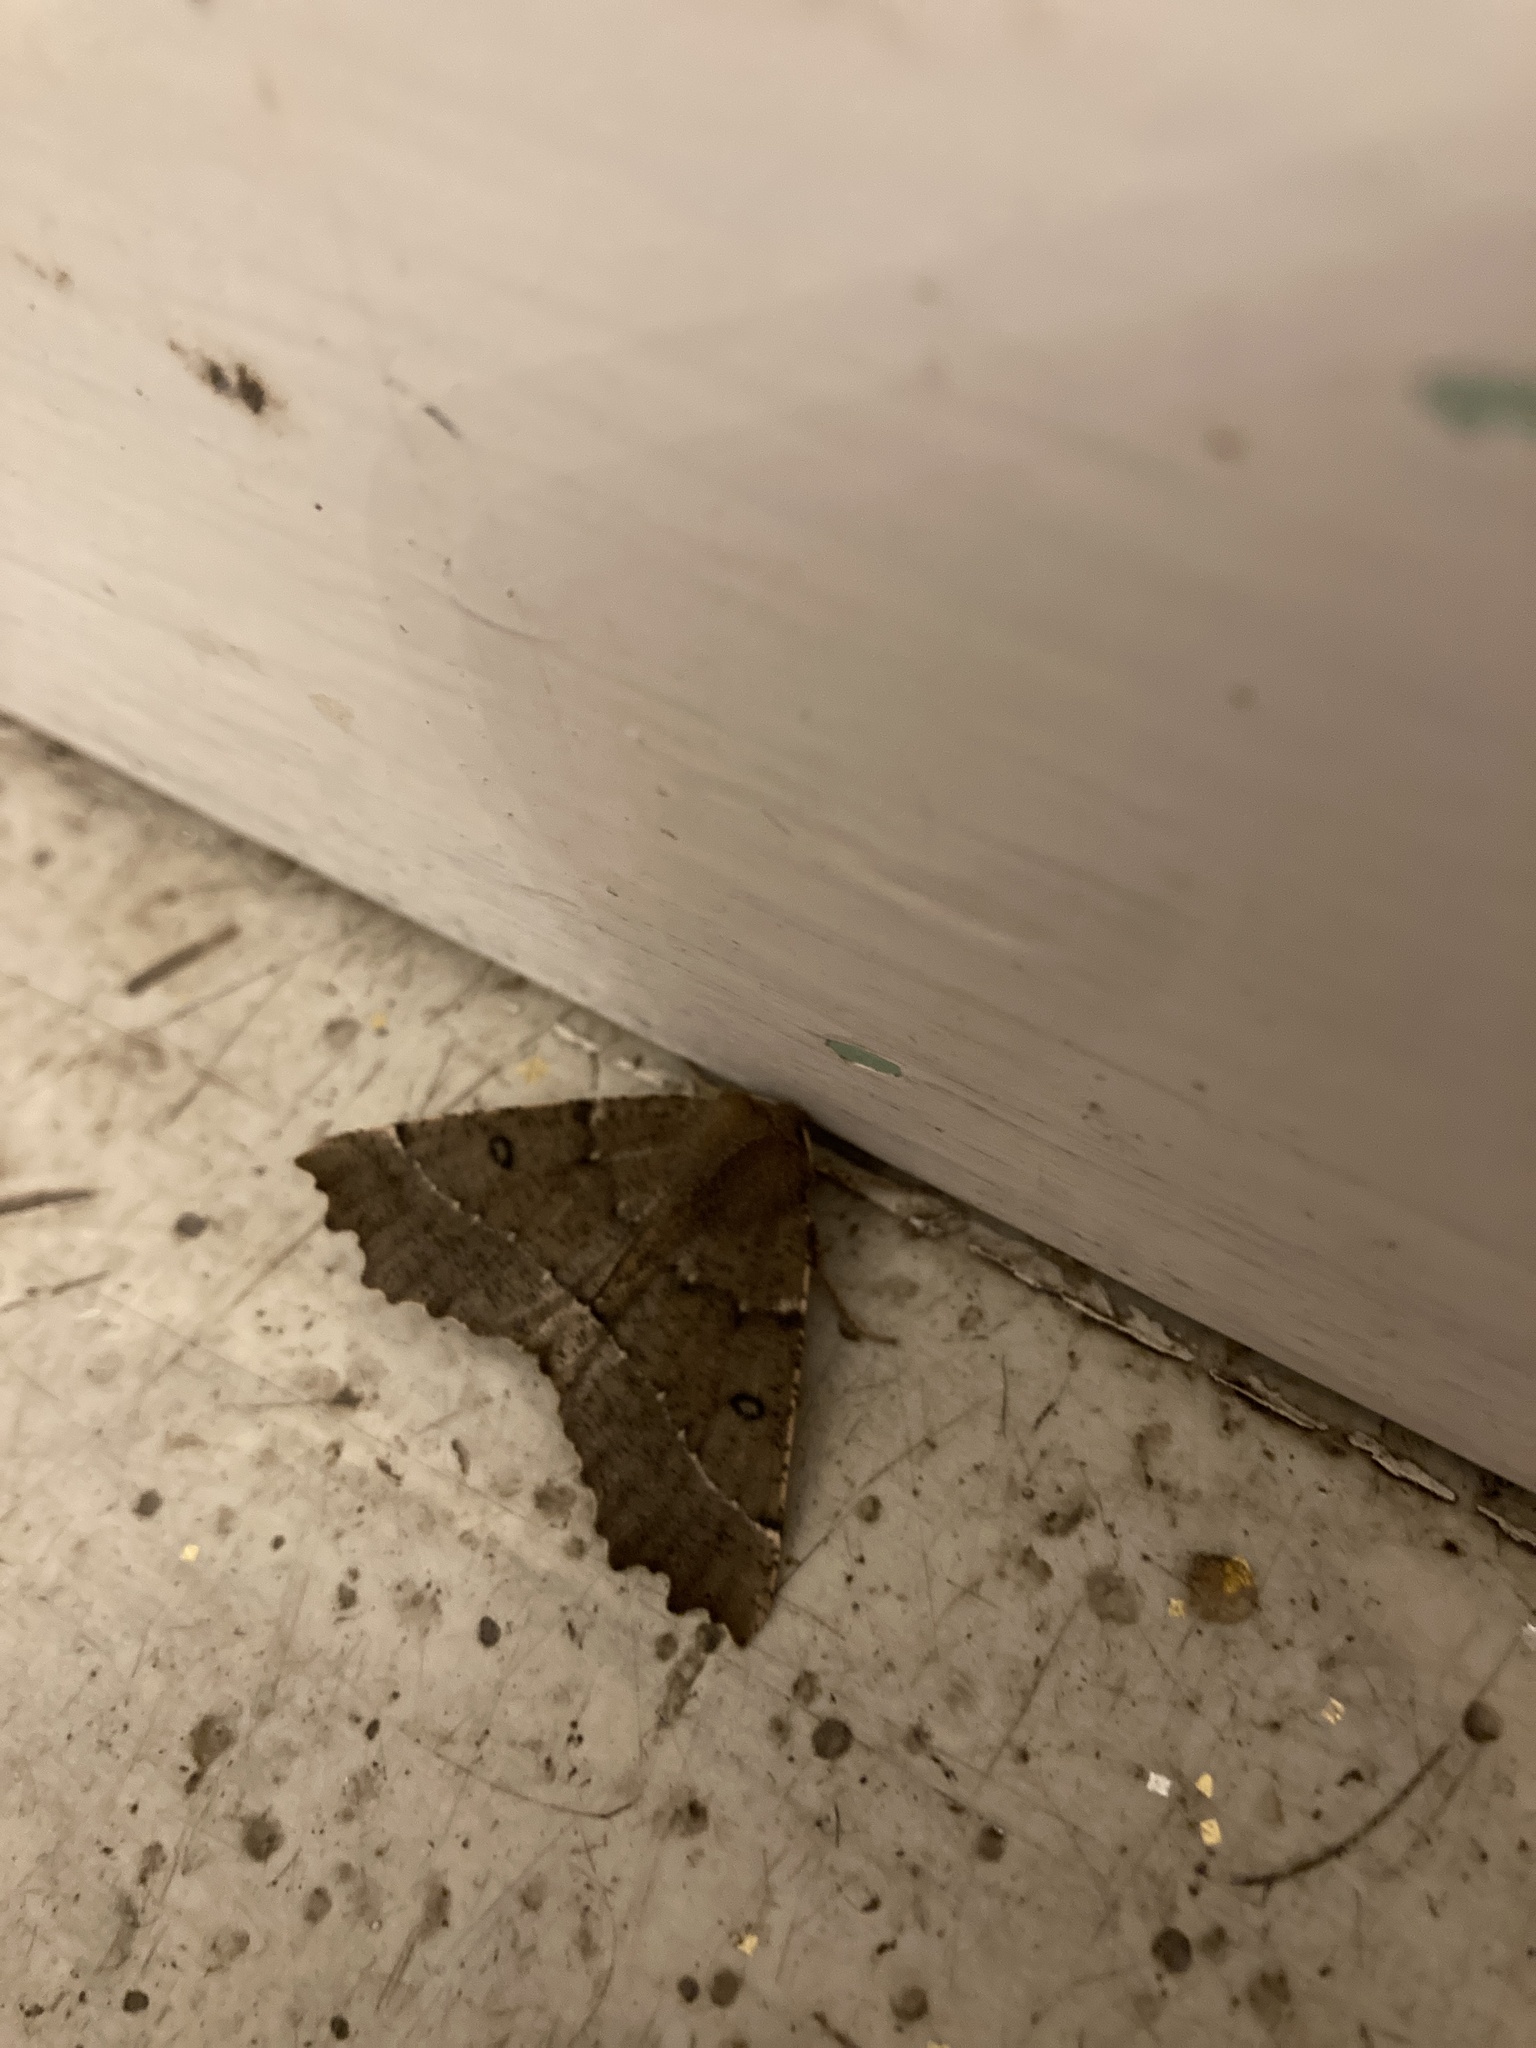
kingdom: Animalia
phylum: Arthropoda
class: Insecta
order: Lepidoptera
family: Geometridae
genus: Odontopera
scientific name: Odontopera bidentata
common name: Scalloped hazel
